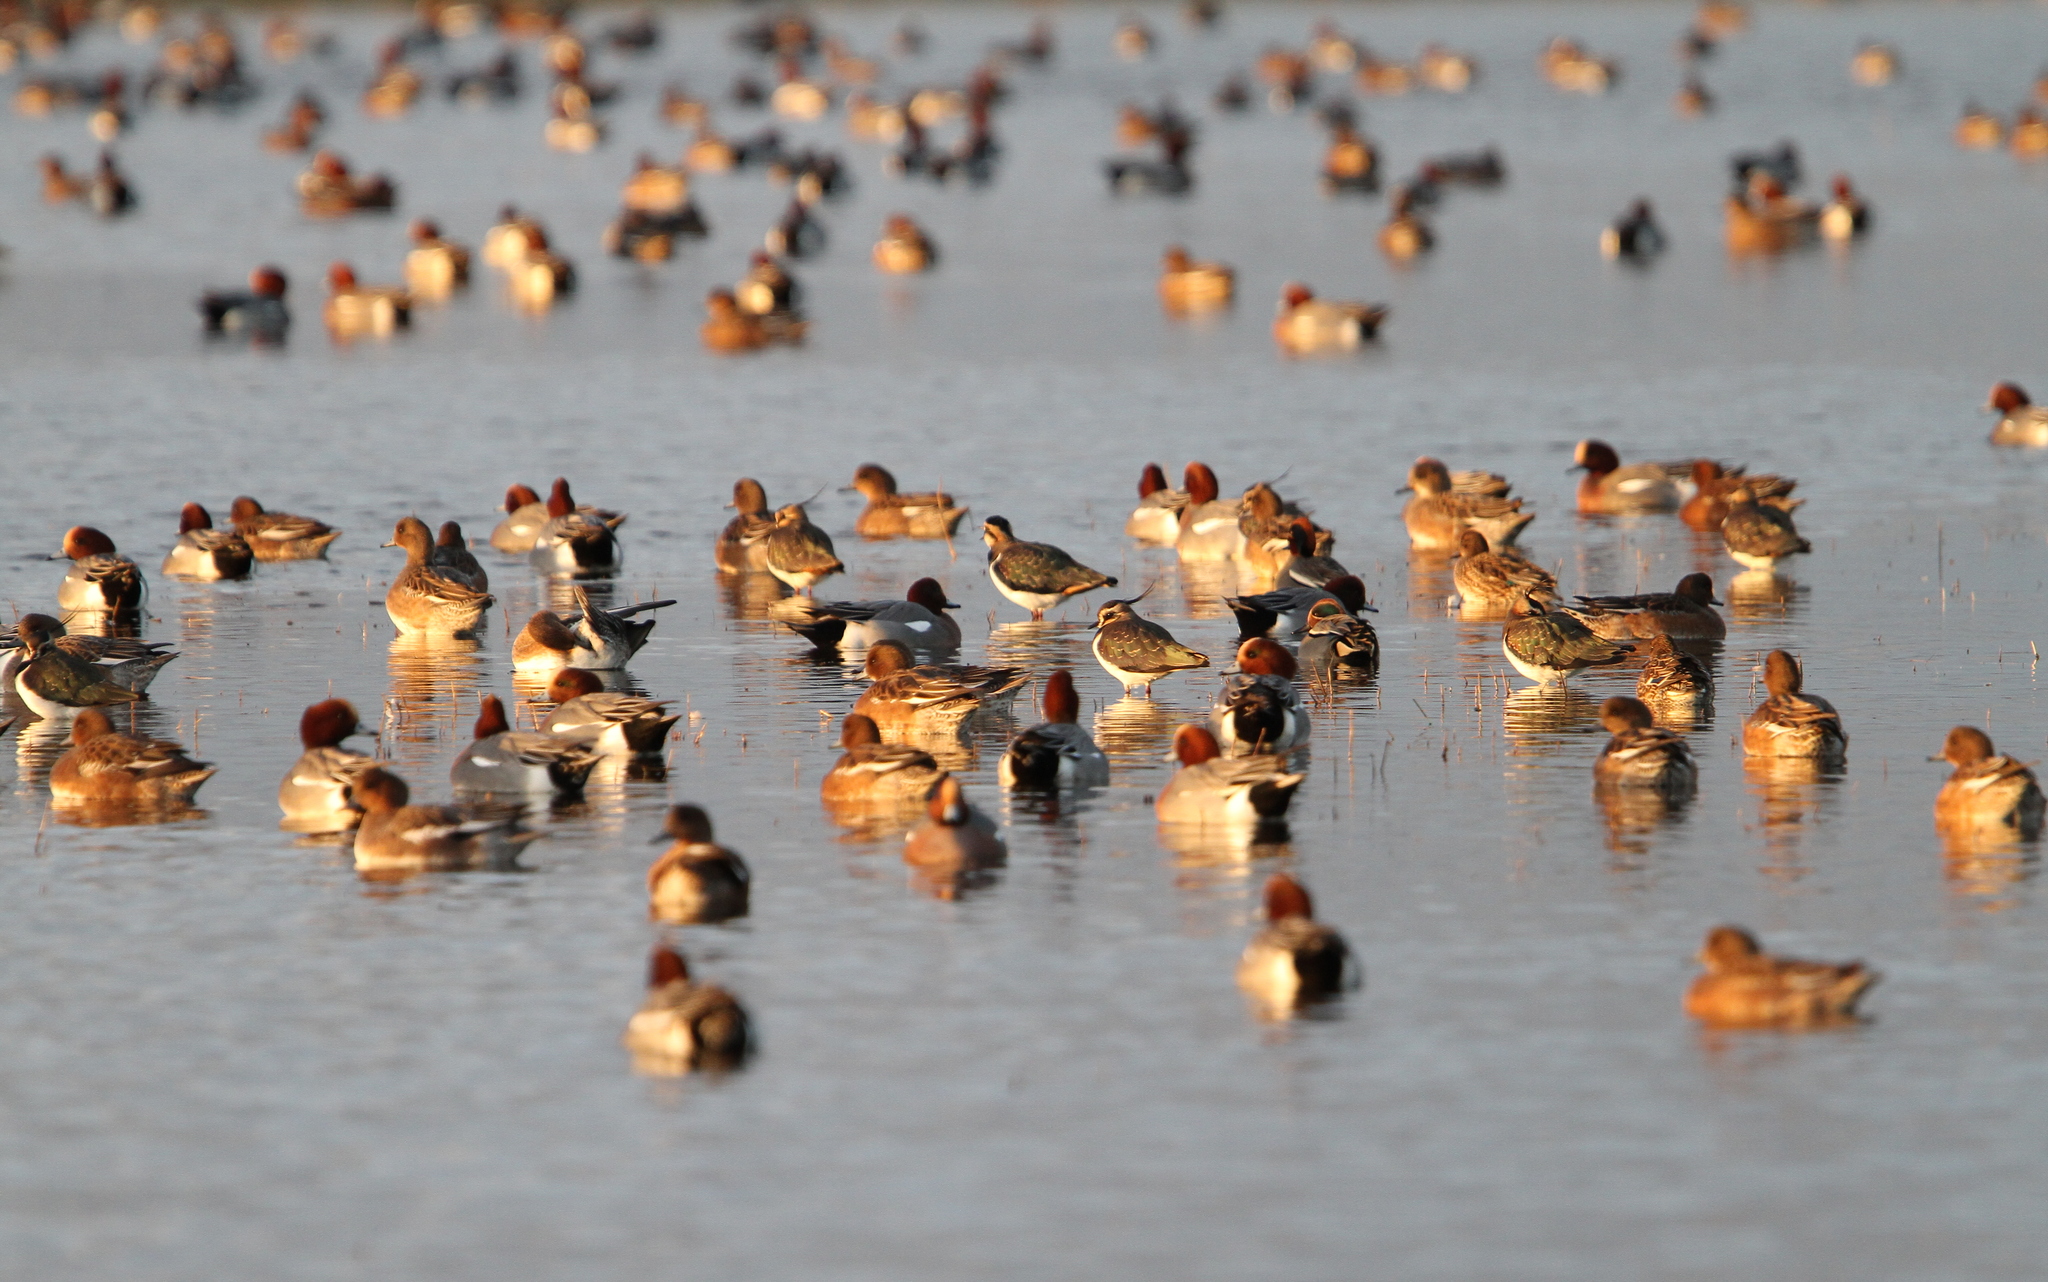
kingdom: Animalia
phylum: Chordata
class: Aves
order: Anseriformes
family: Anatidae
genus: Mareca
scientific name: Mareca penelope
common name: Eurasian wigeon
